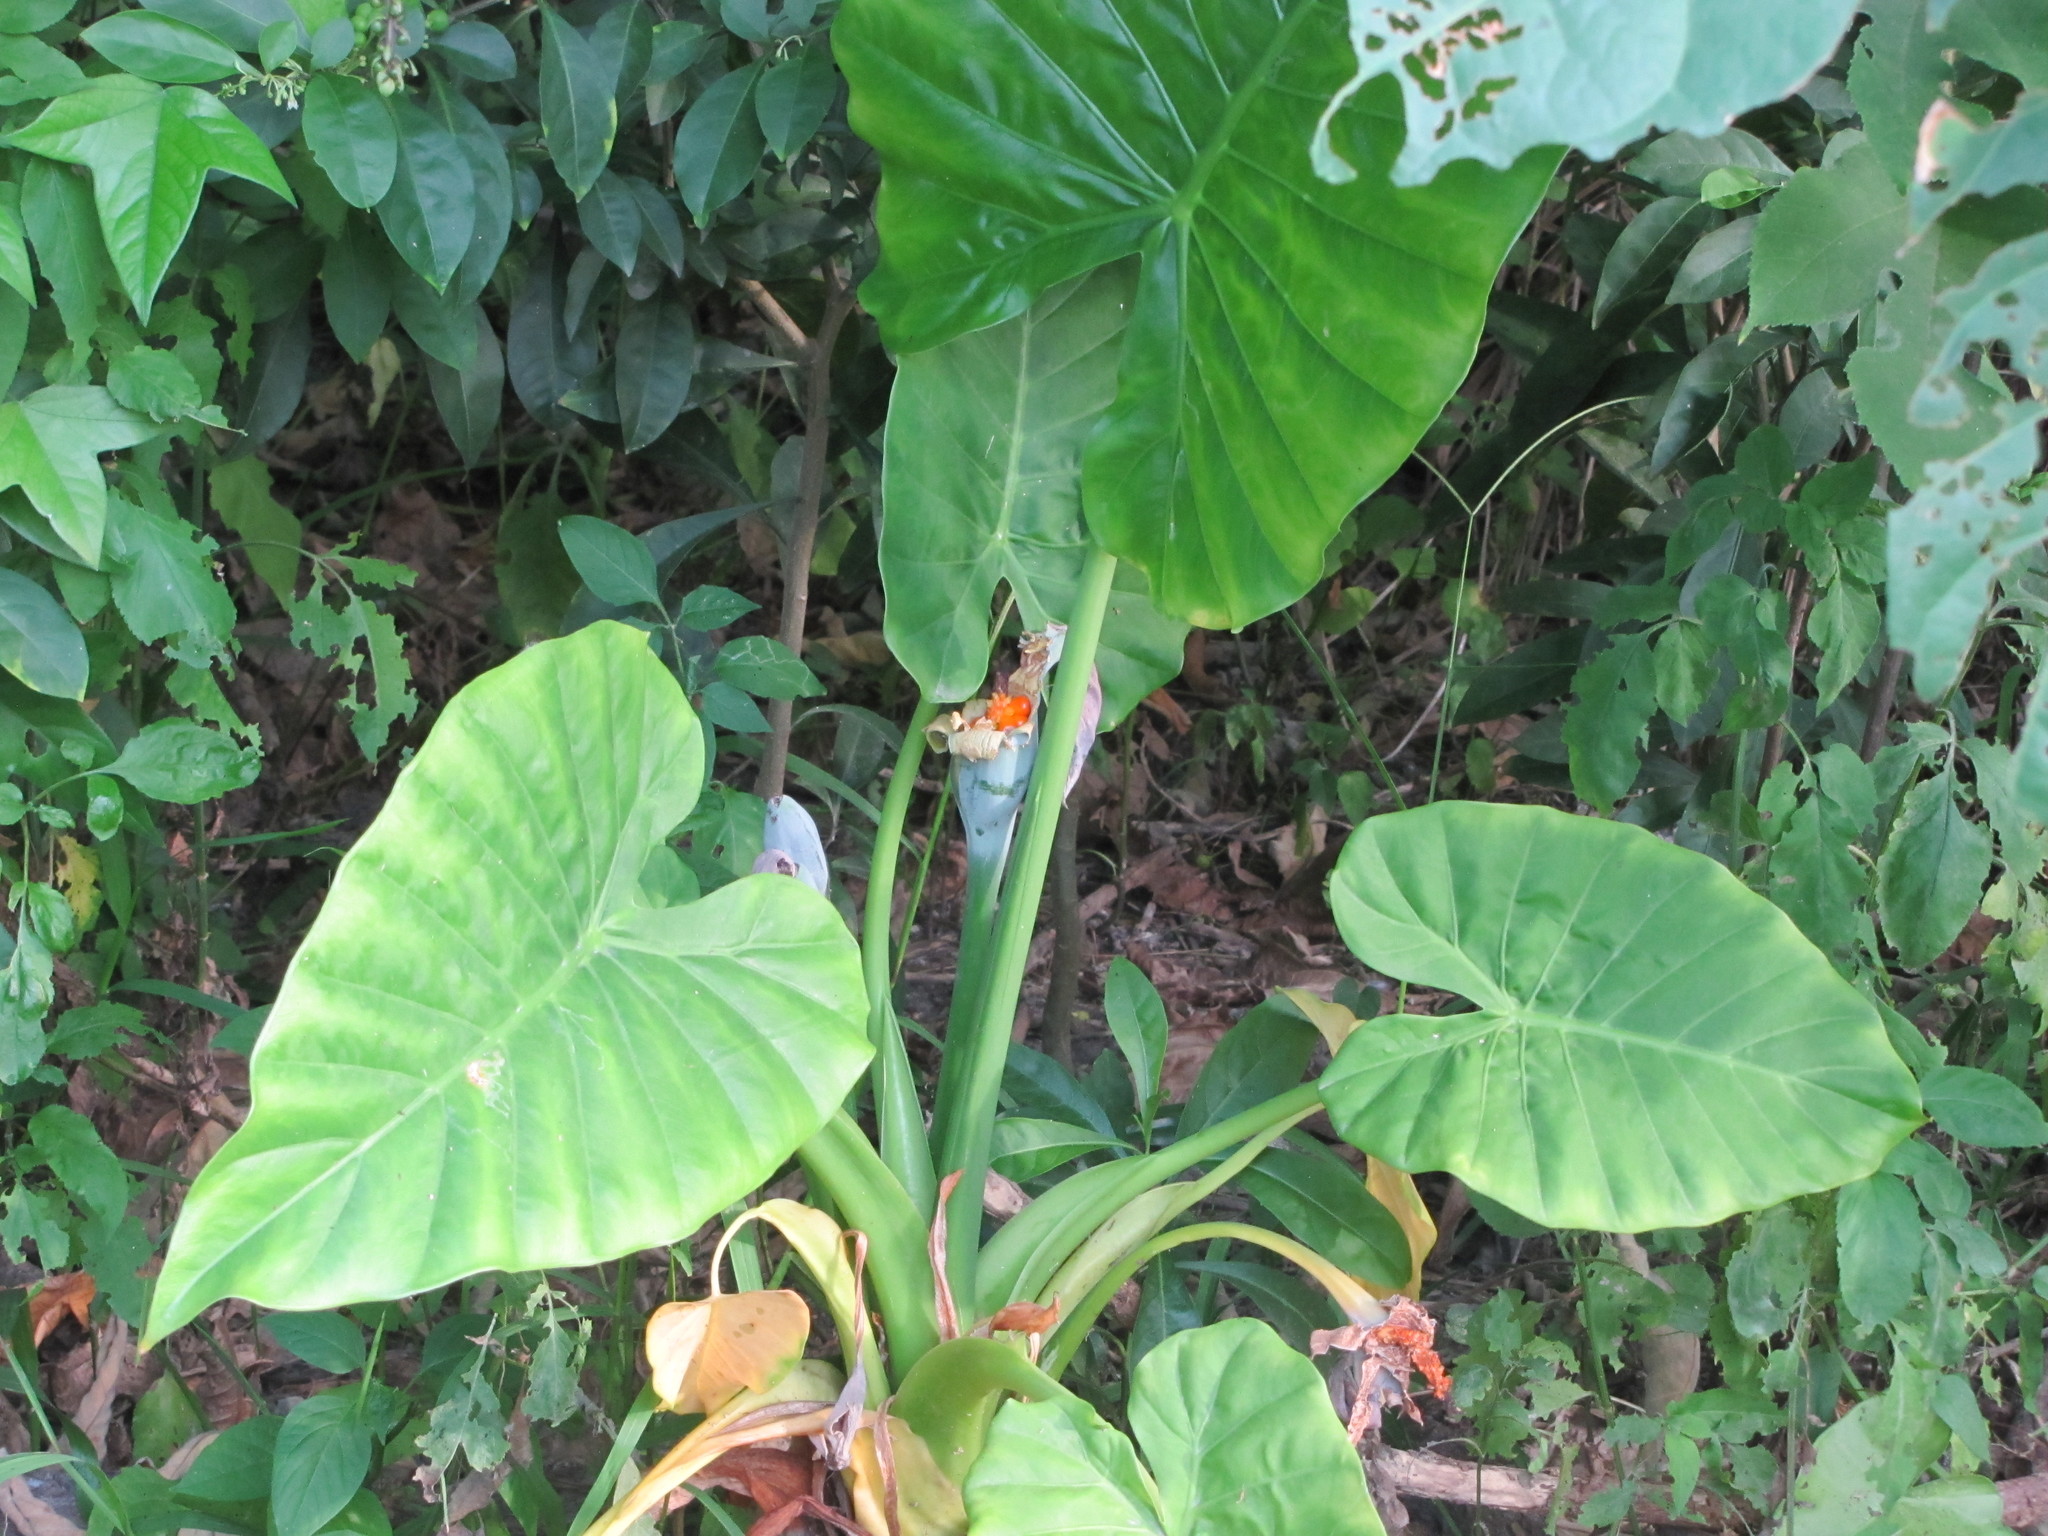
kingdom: Plantae
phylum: Tracheophyta
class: Liliopsida
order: Alismatales
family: Araceae
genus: Alocasia
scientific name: Alocasia odora
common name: Asian taro
